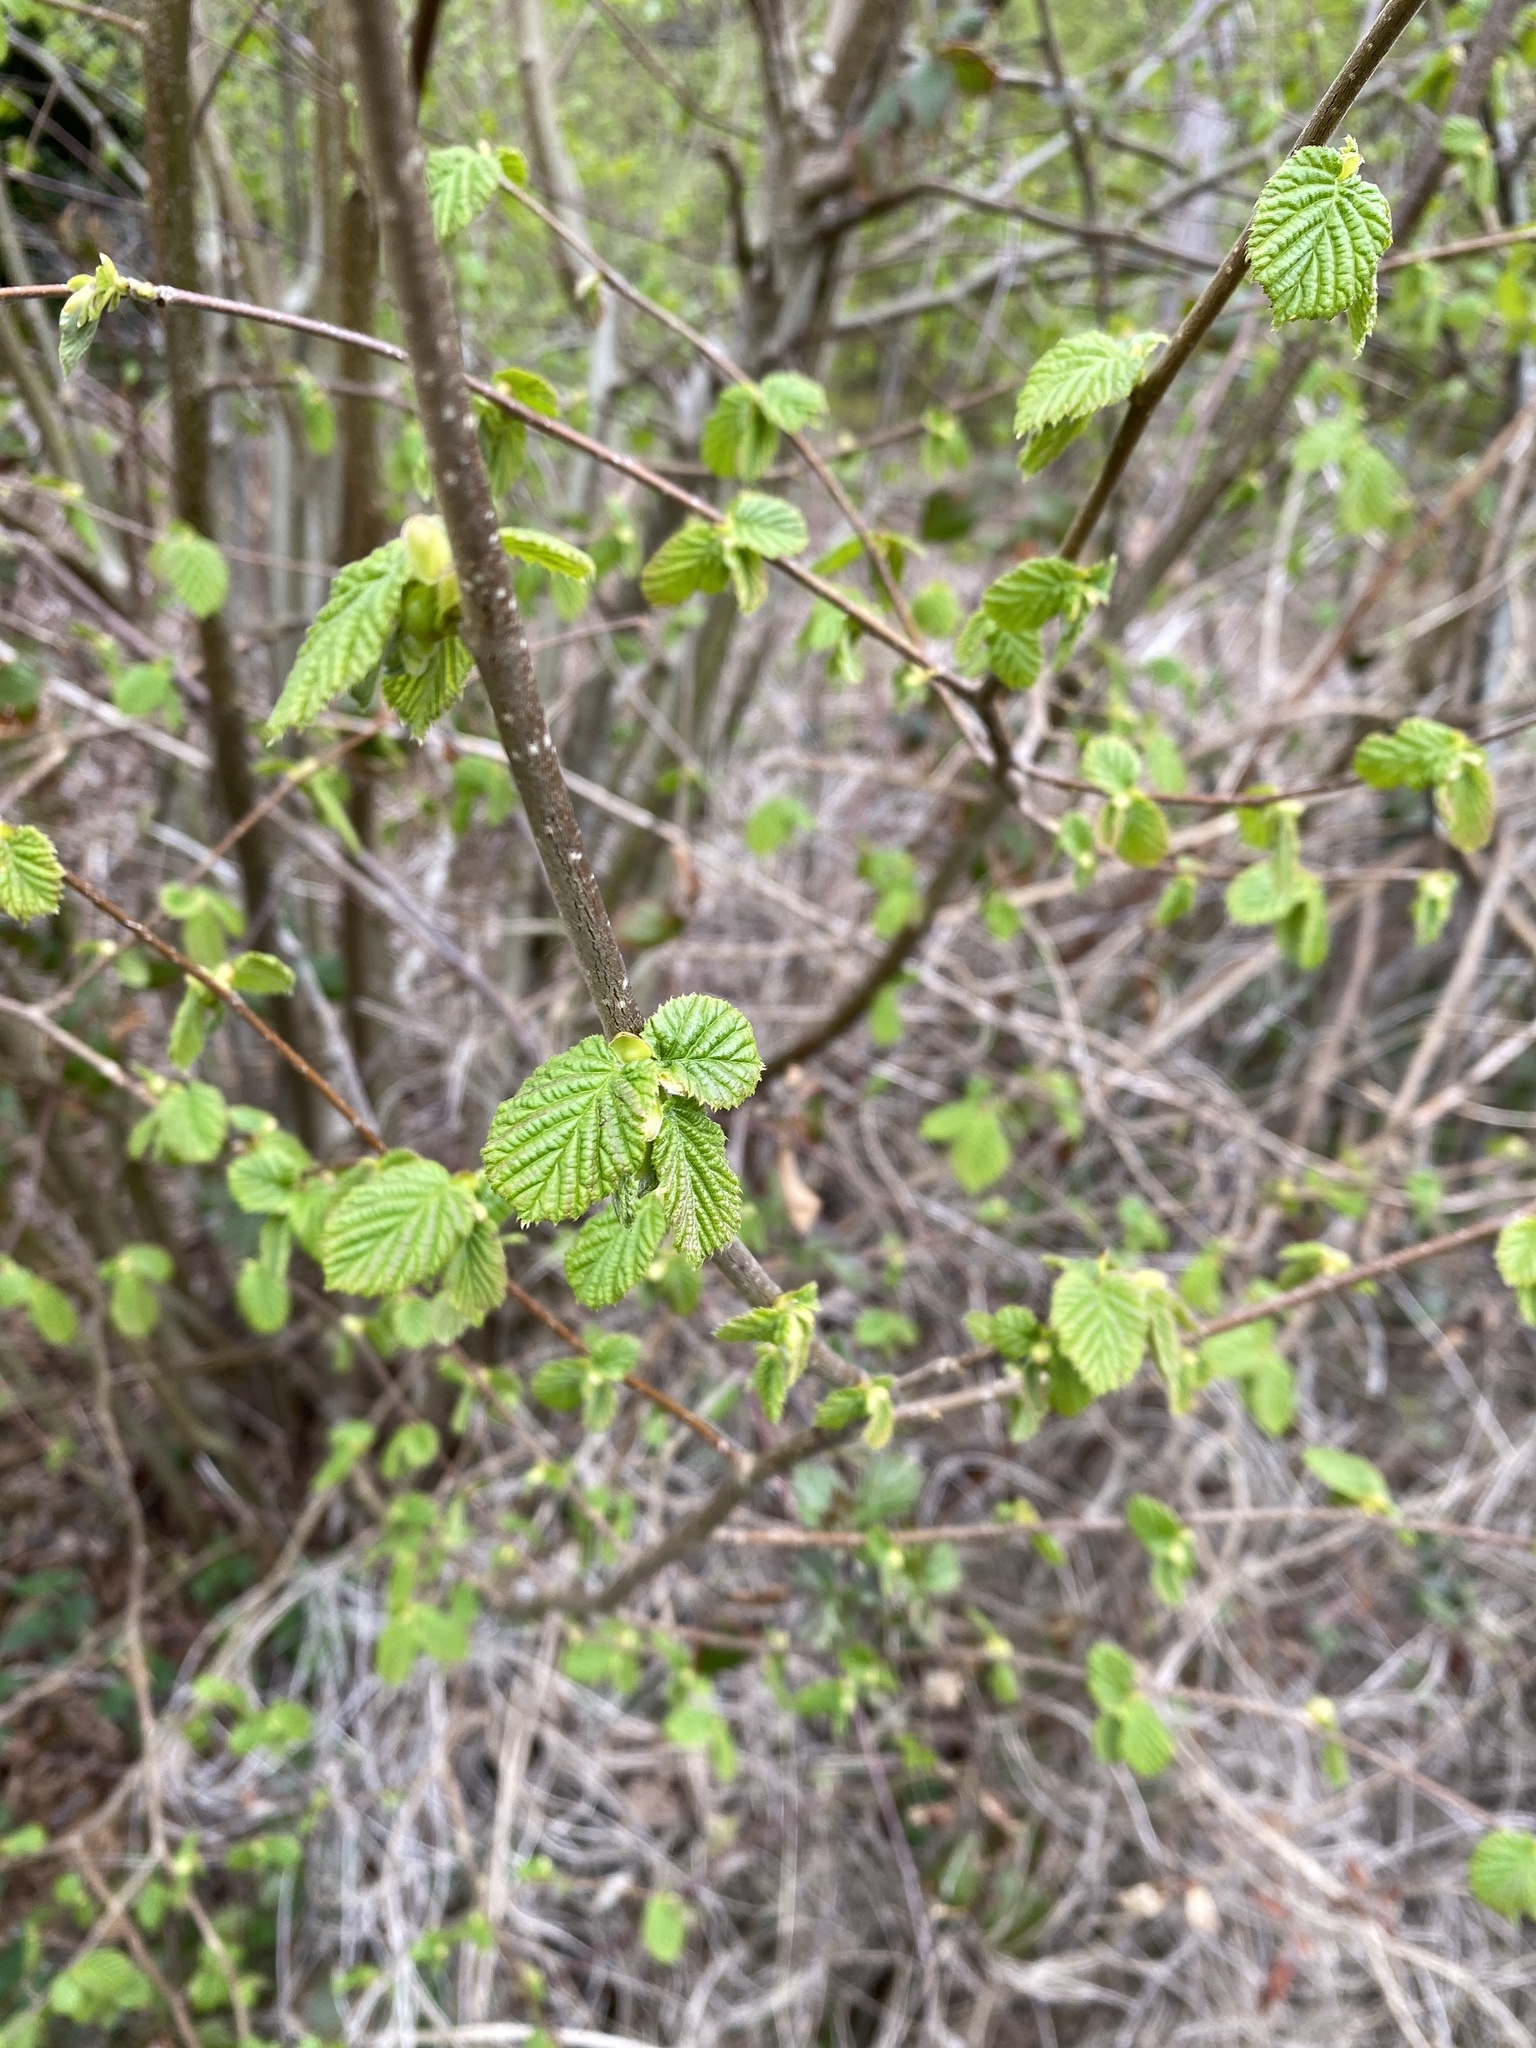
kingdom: Plantae
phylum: Tracheophyta
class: Magnoliopsida
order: Fagales
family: Betulaceae
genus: Corylus
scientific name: Corylus avellana
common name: European hazel
